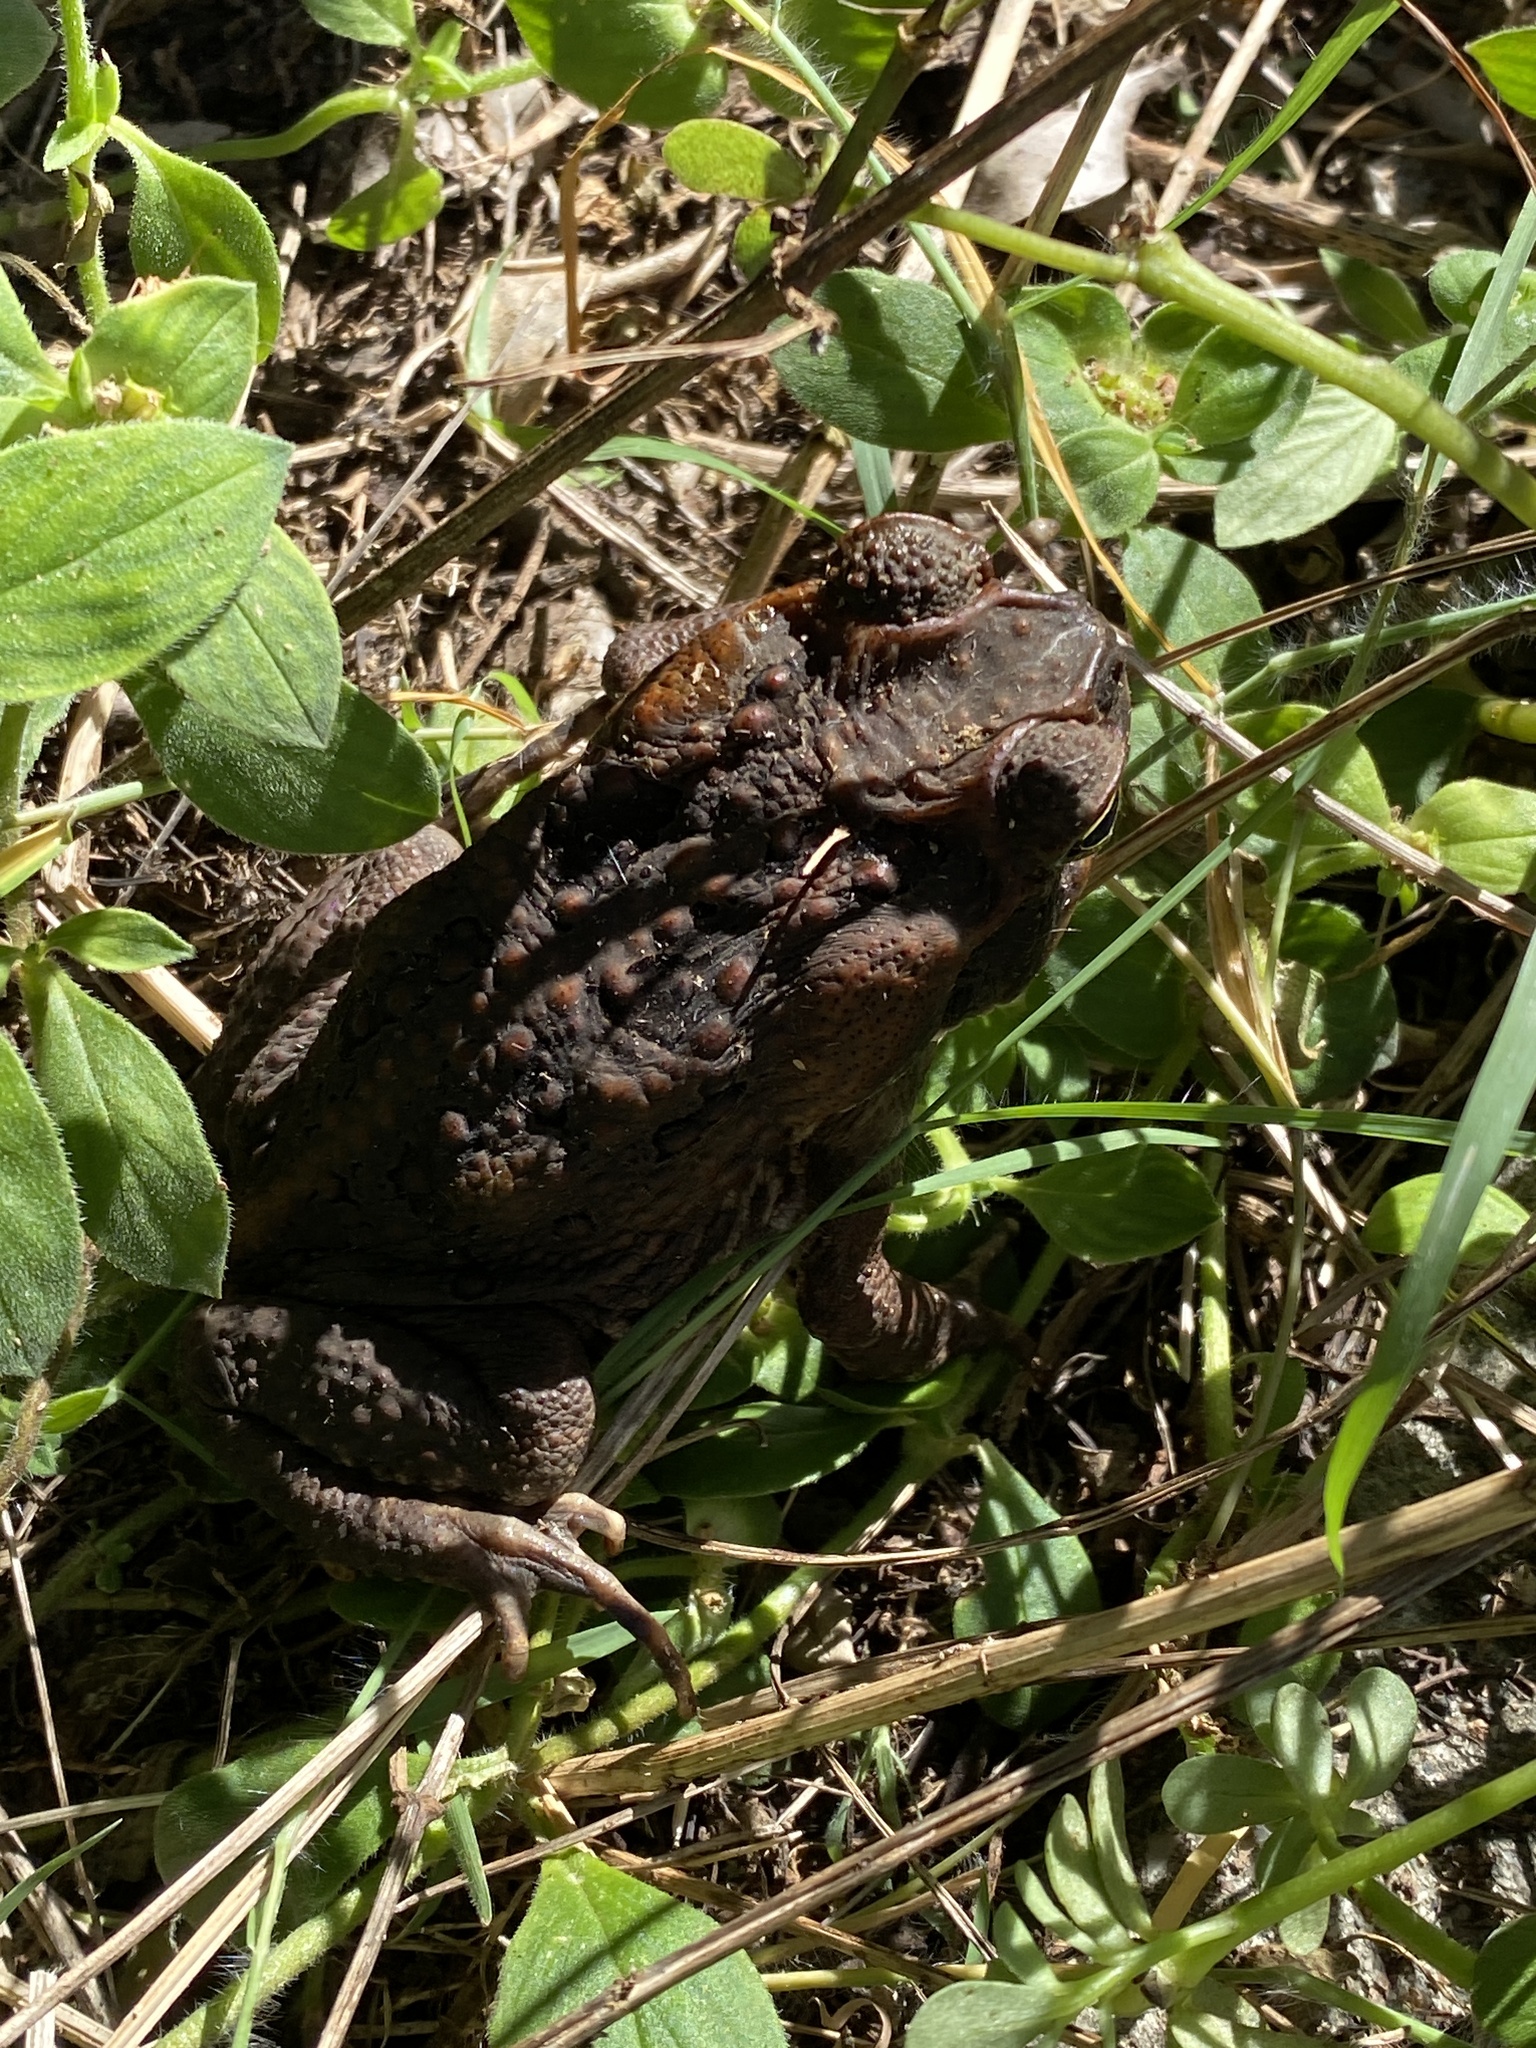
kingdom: Animalia
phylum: Chordata
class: Amphibia
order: Anura
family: Bufonidae
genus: Rhinella
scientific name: Rhinella marina
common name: Cane toad
